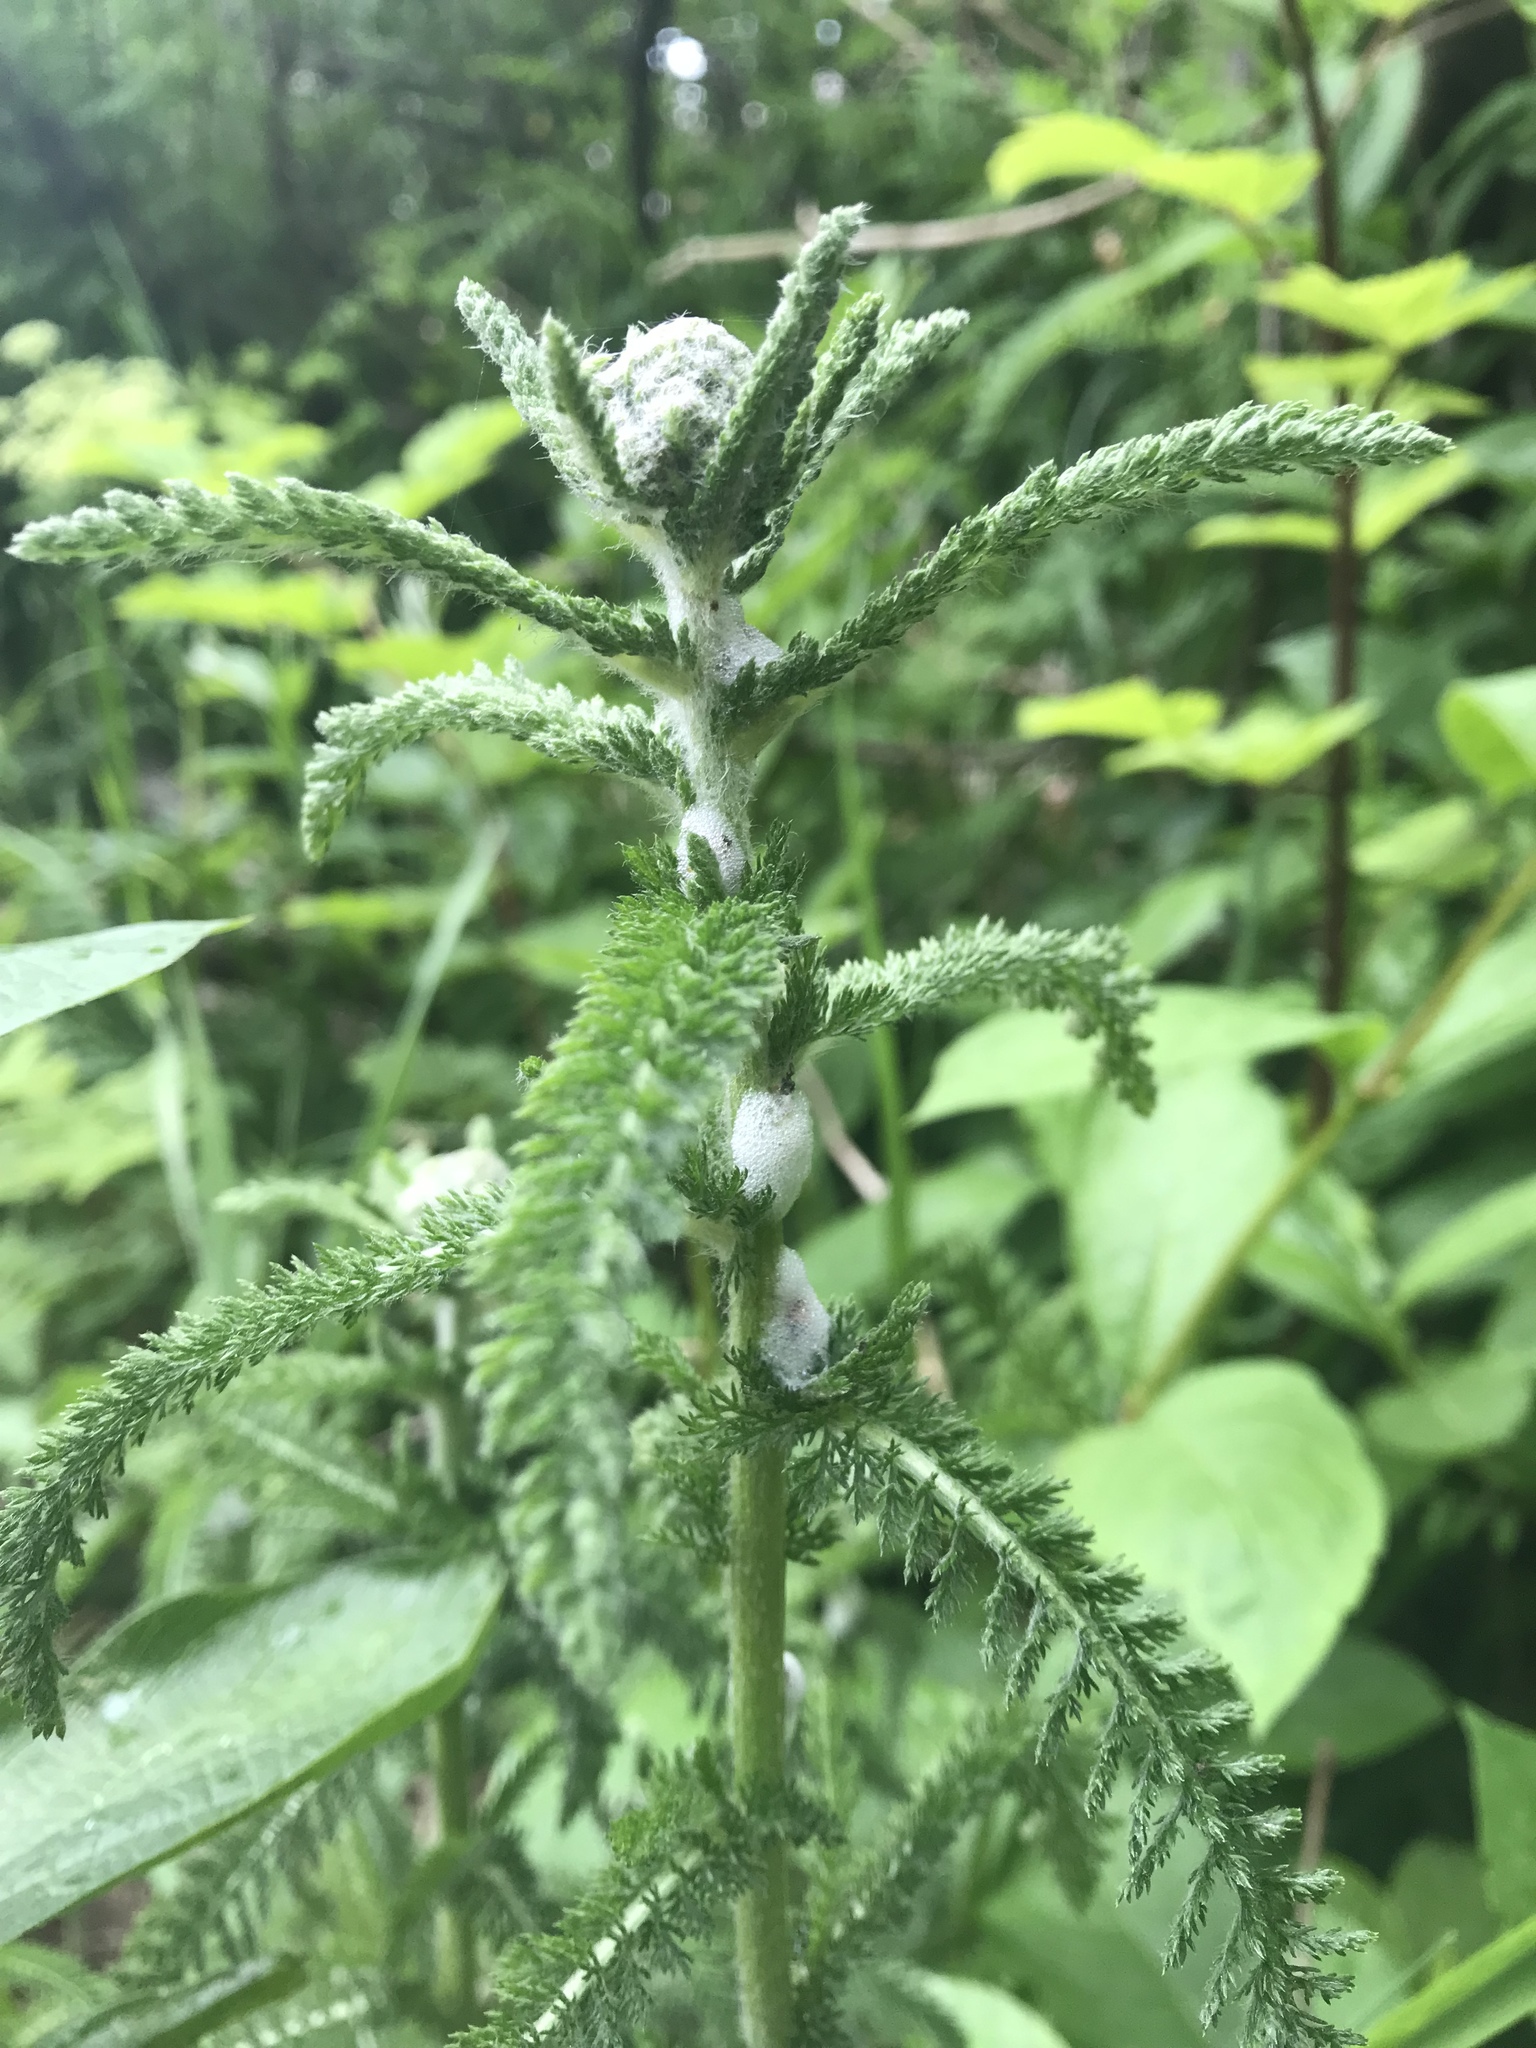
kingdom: Plantae
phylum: Tracheophyta
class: Magnoliopsida
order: Asterales
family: Asteraceae
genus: Achillea
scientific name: Achillea millefolium
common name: Yarrow
